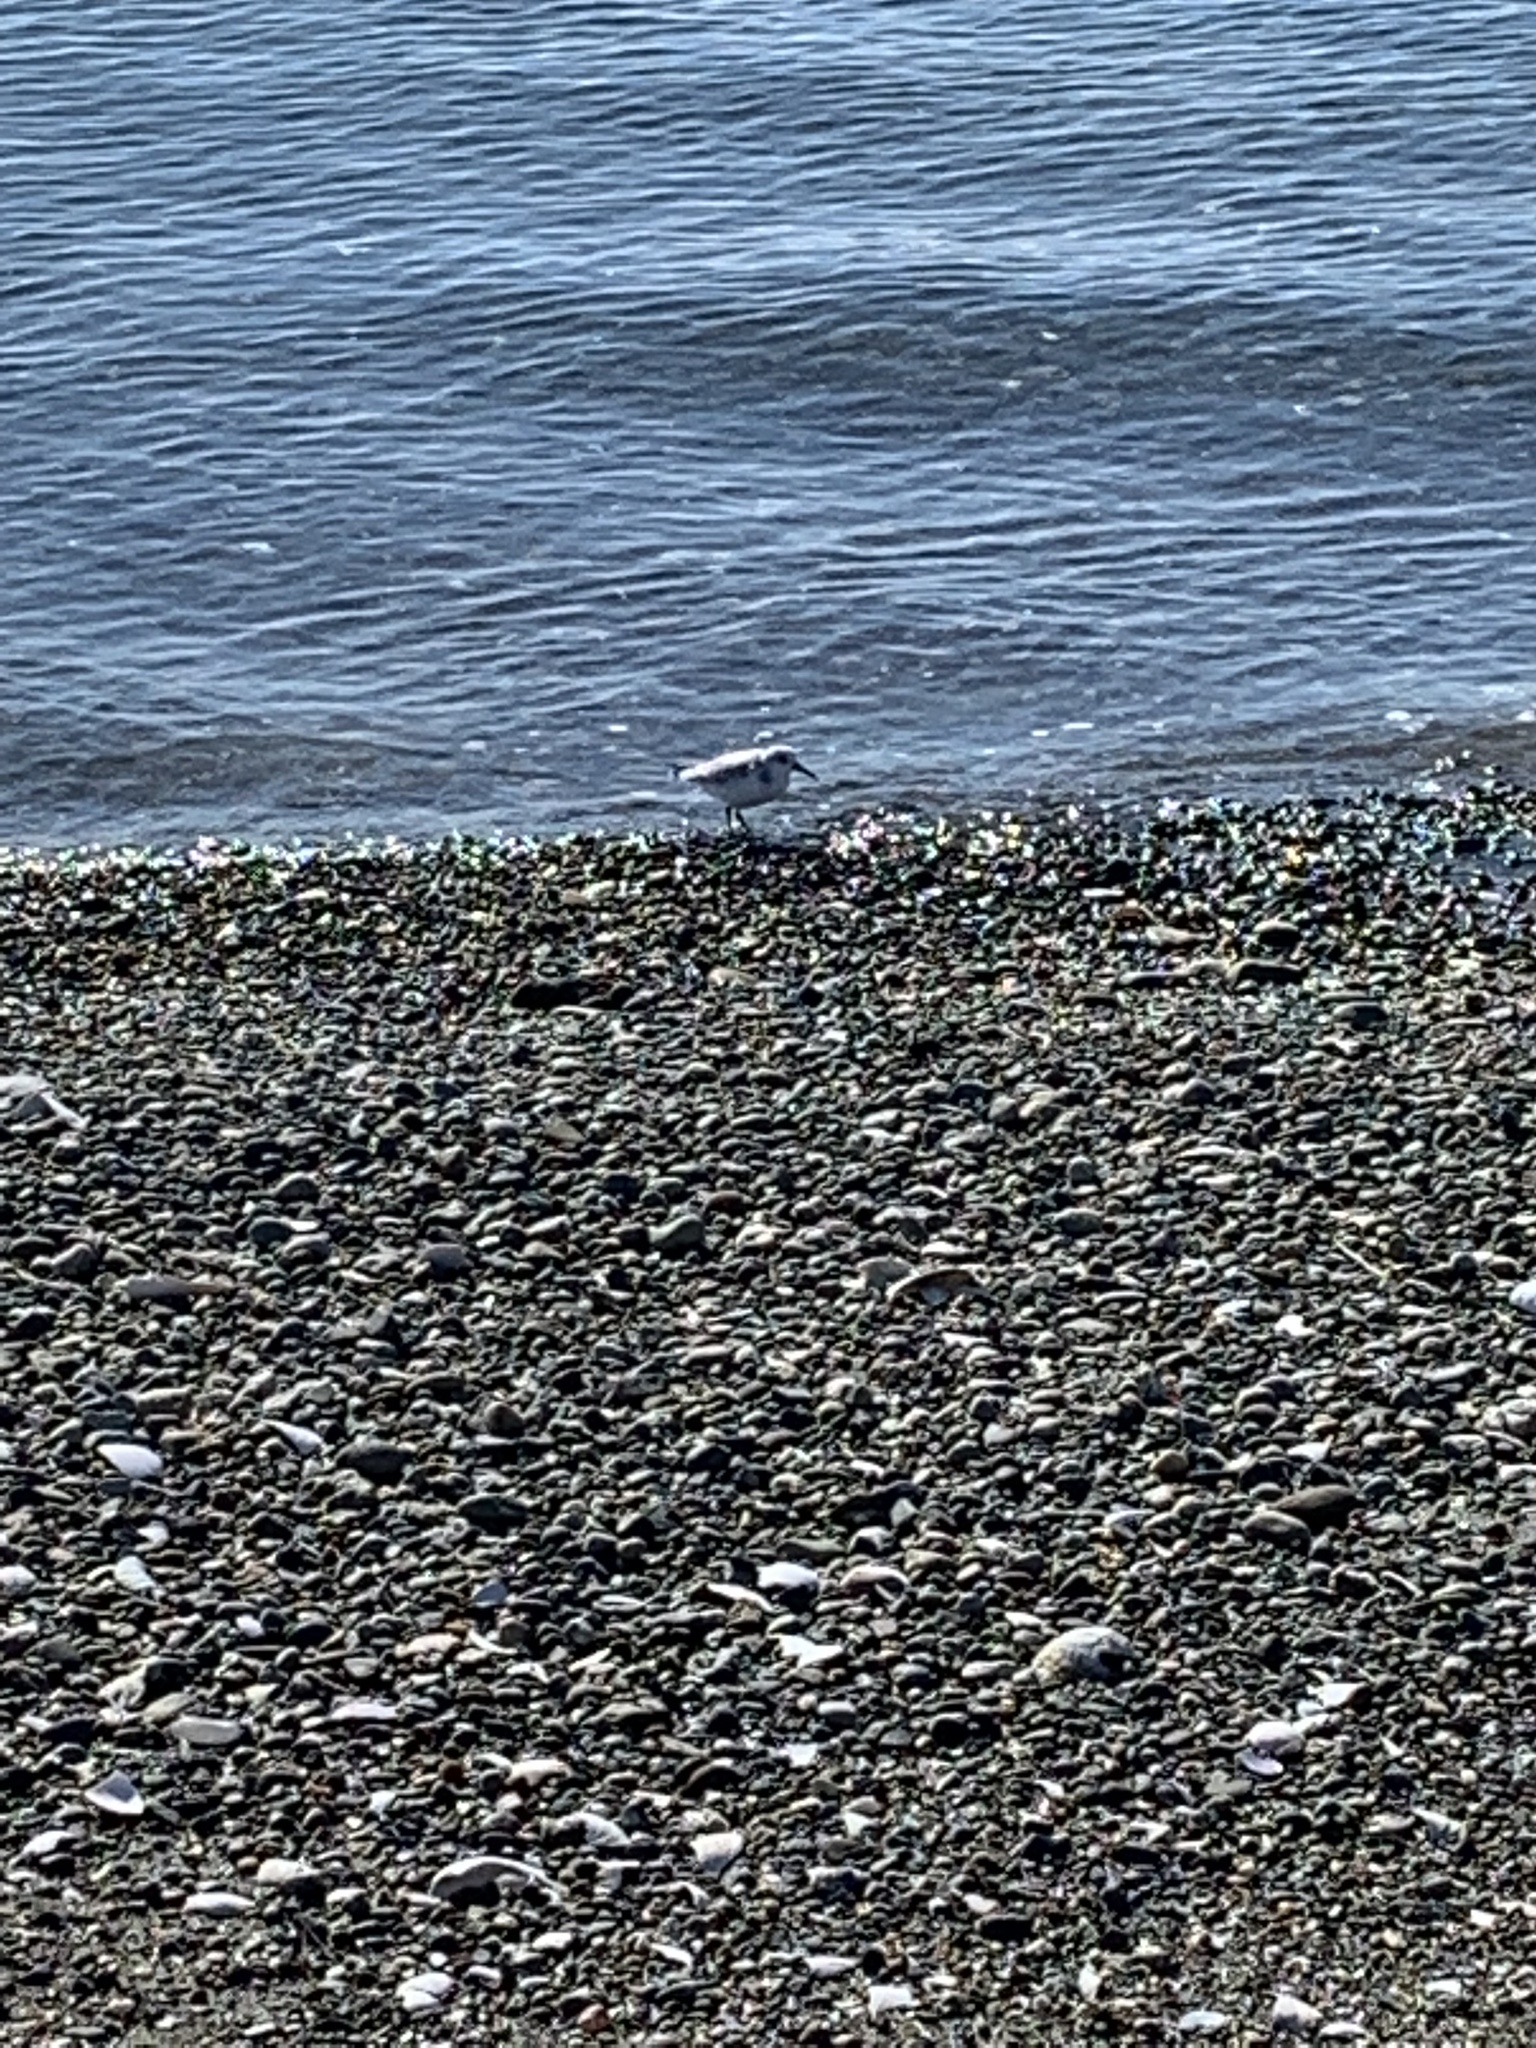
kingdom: Animalia
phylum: Chordata
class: Aves
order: Charadriiformes
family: Scolopacidae
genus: Calidris
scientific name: Calidris alba
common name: Sanderling
